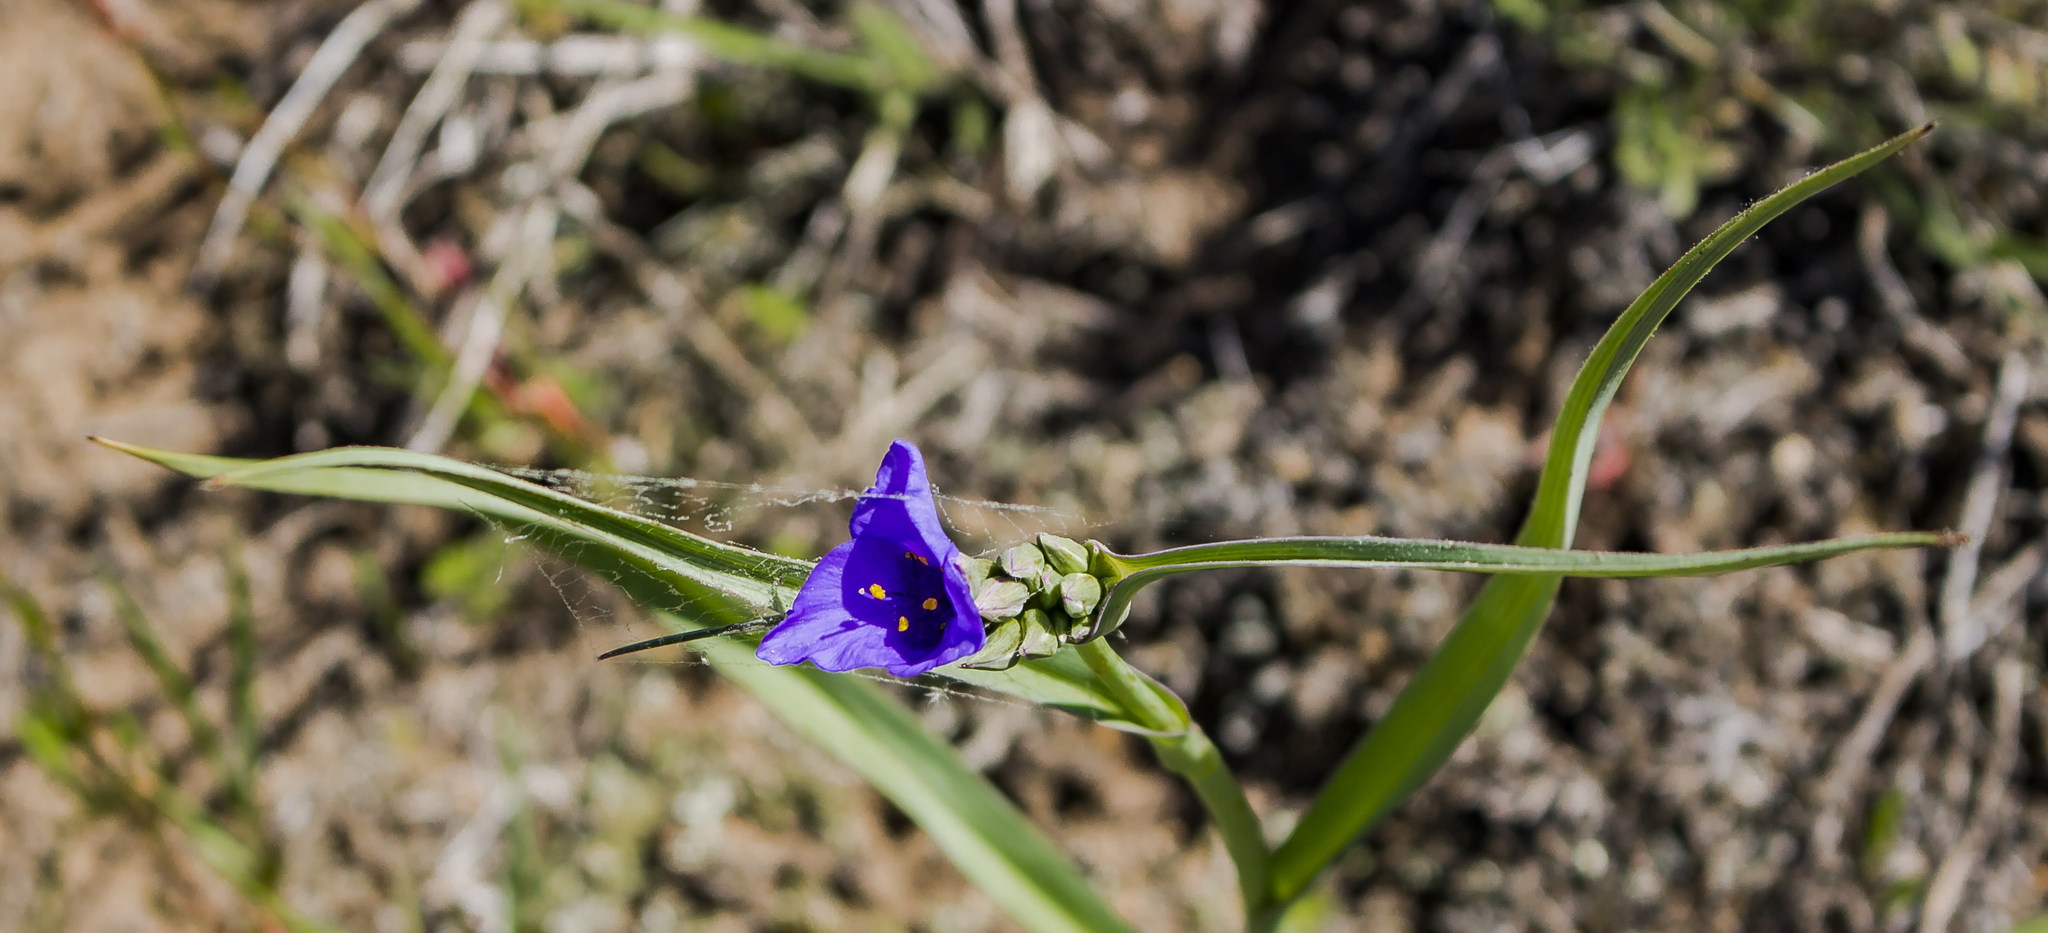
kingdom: Plantae
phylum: Tracheophyta
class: Liliopsida
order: Commelinales
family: Commelinaceae
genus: Tradescantia
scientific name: Tradescantia ohiensis
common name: Ohio spiderwort
